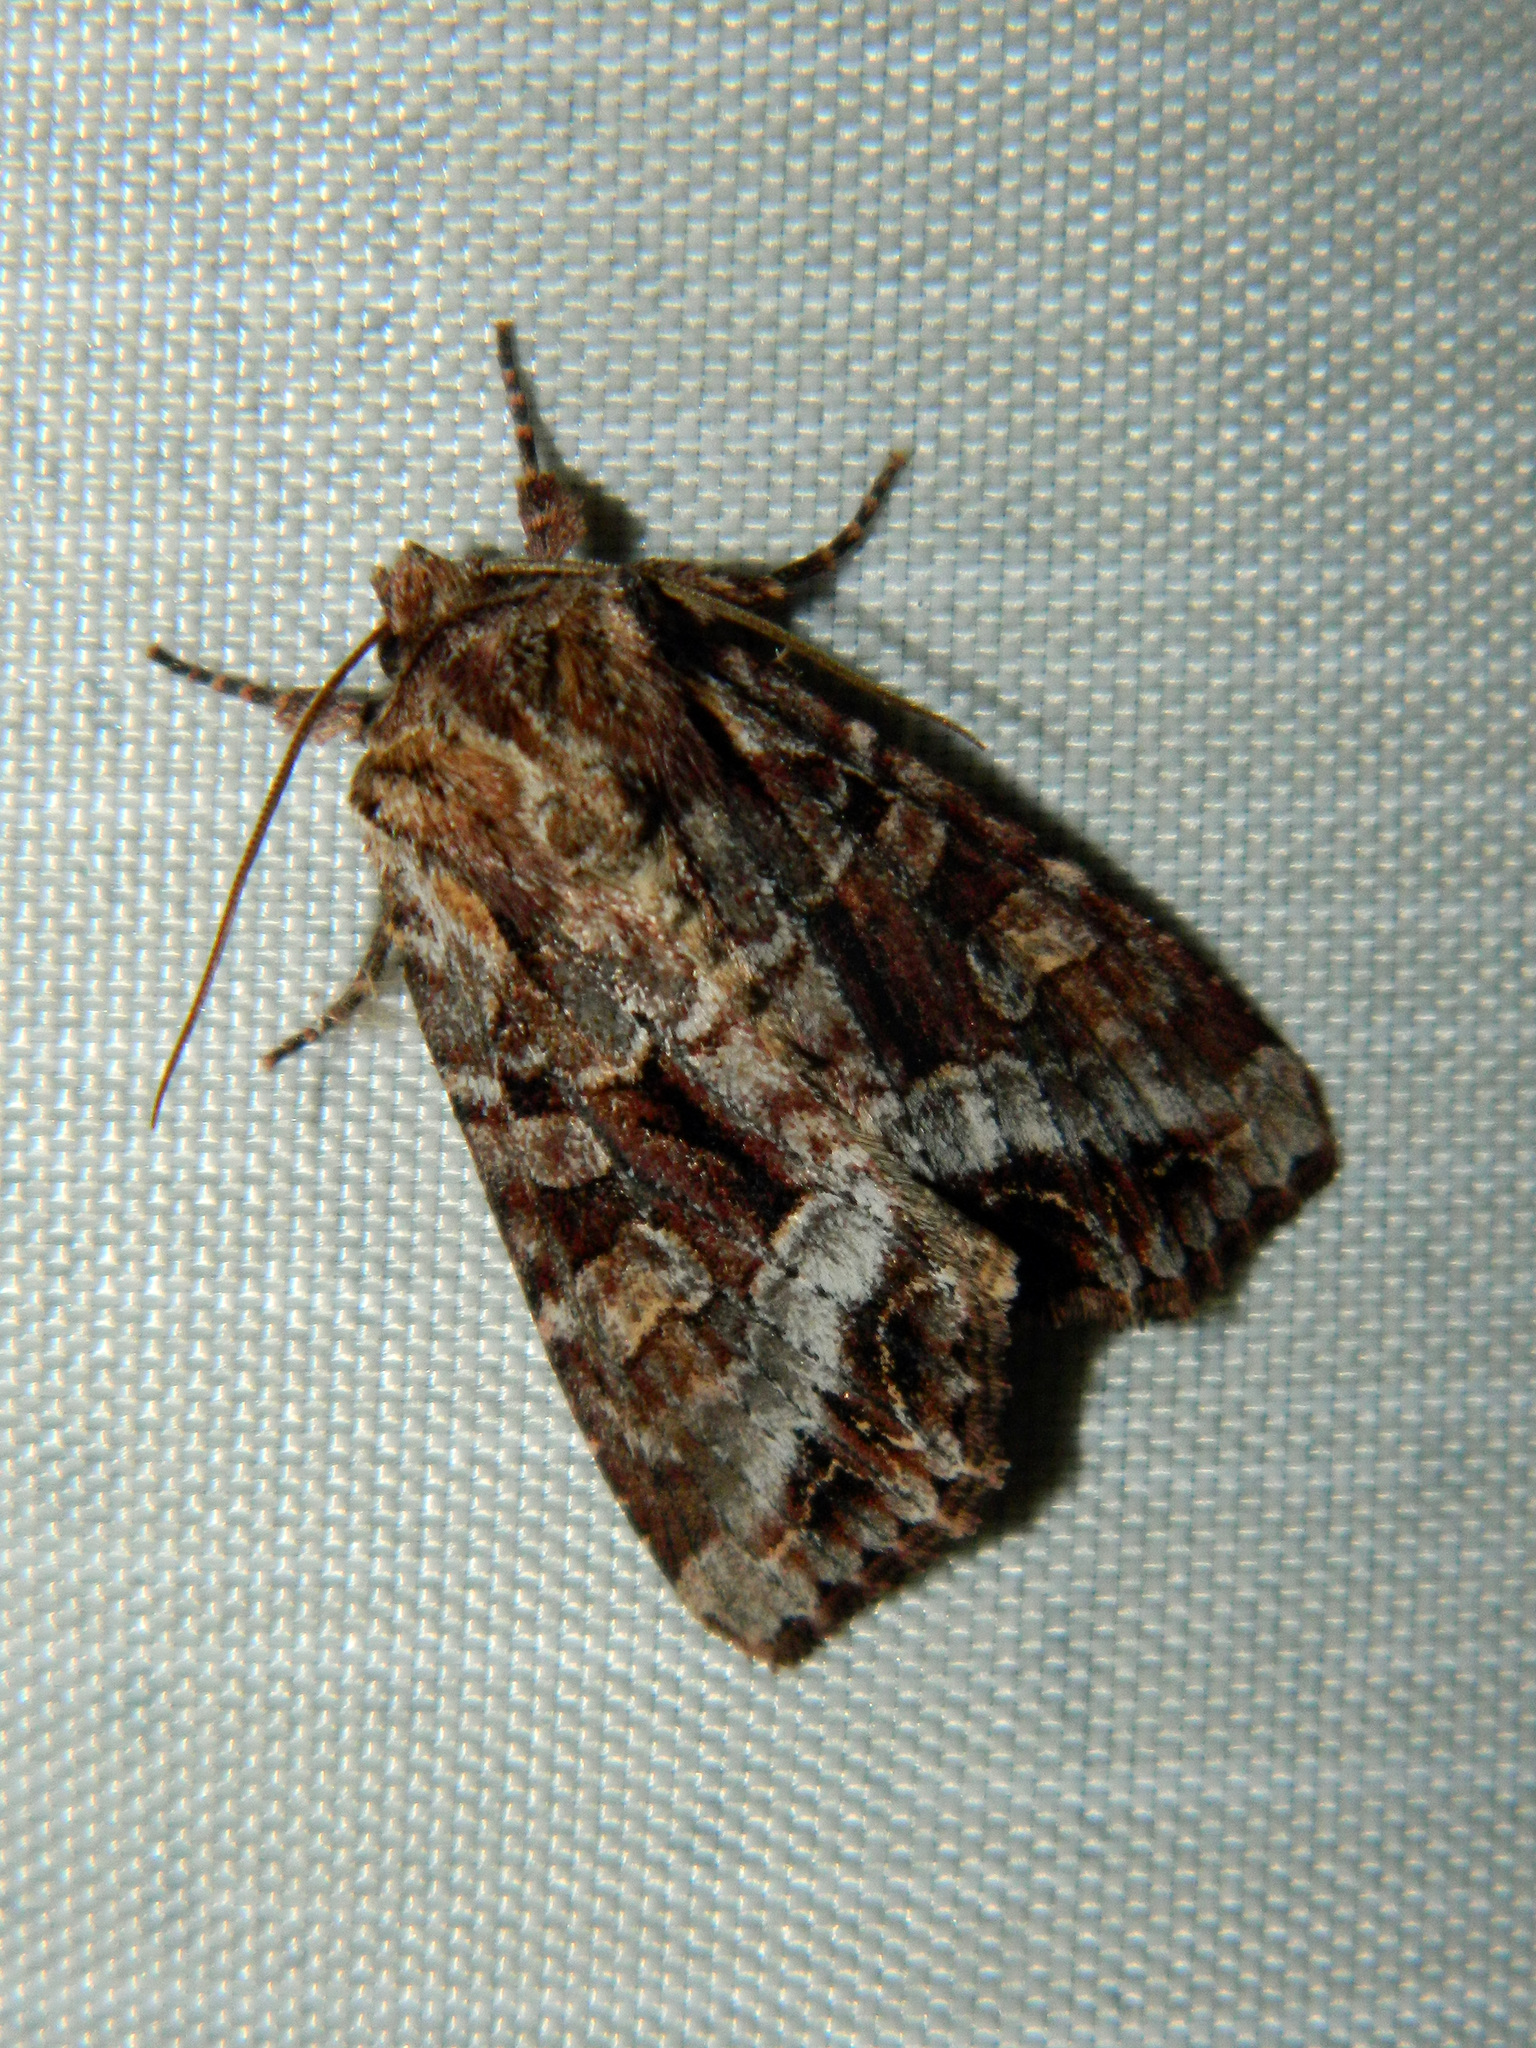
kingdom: Animalia
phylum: Arthropoda
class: Insecta
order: Lepidoptera
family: Noctuidae
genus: Lacanobia
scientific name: Lacanobia grandis
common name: Grand arches moth
